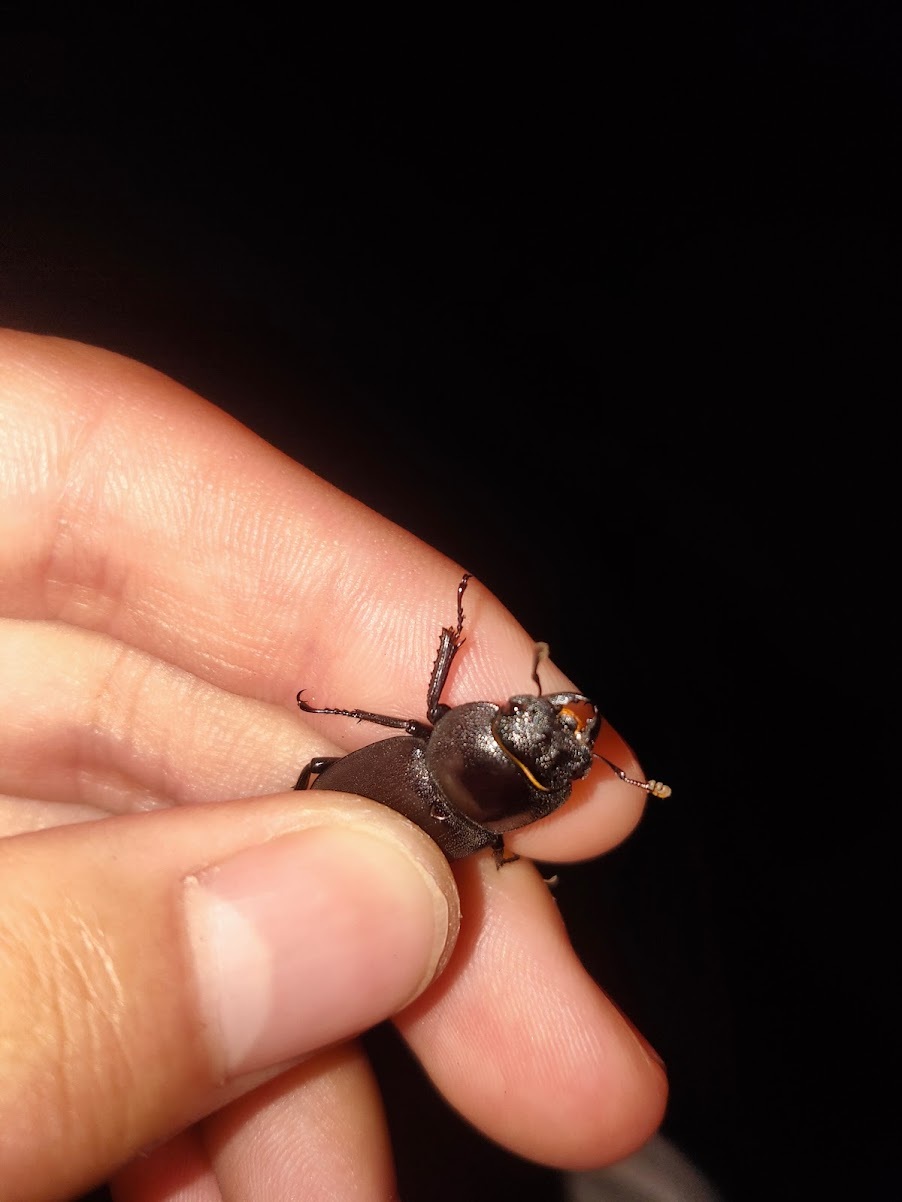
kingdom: Animalia
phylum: Arthropoda
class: Insecta
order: Coleoptera
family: Lucanidae
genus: Dorcus
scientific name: Dorcus rectus
